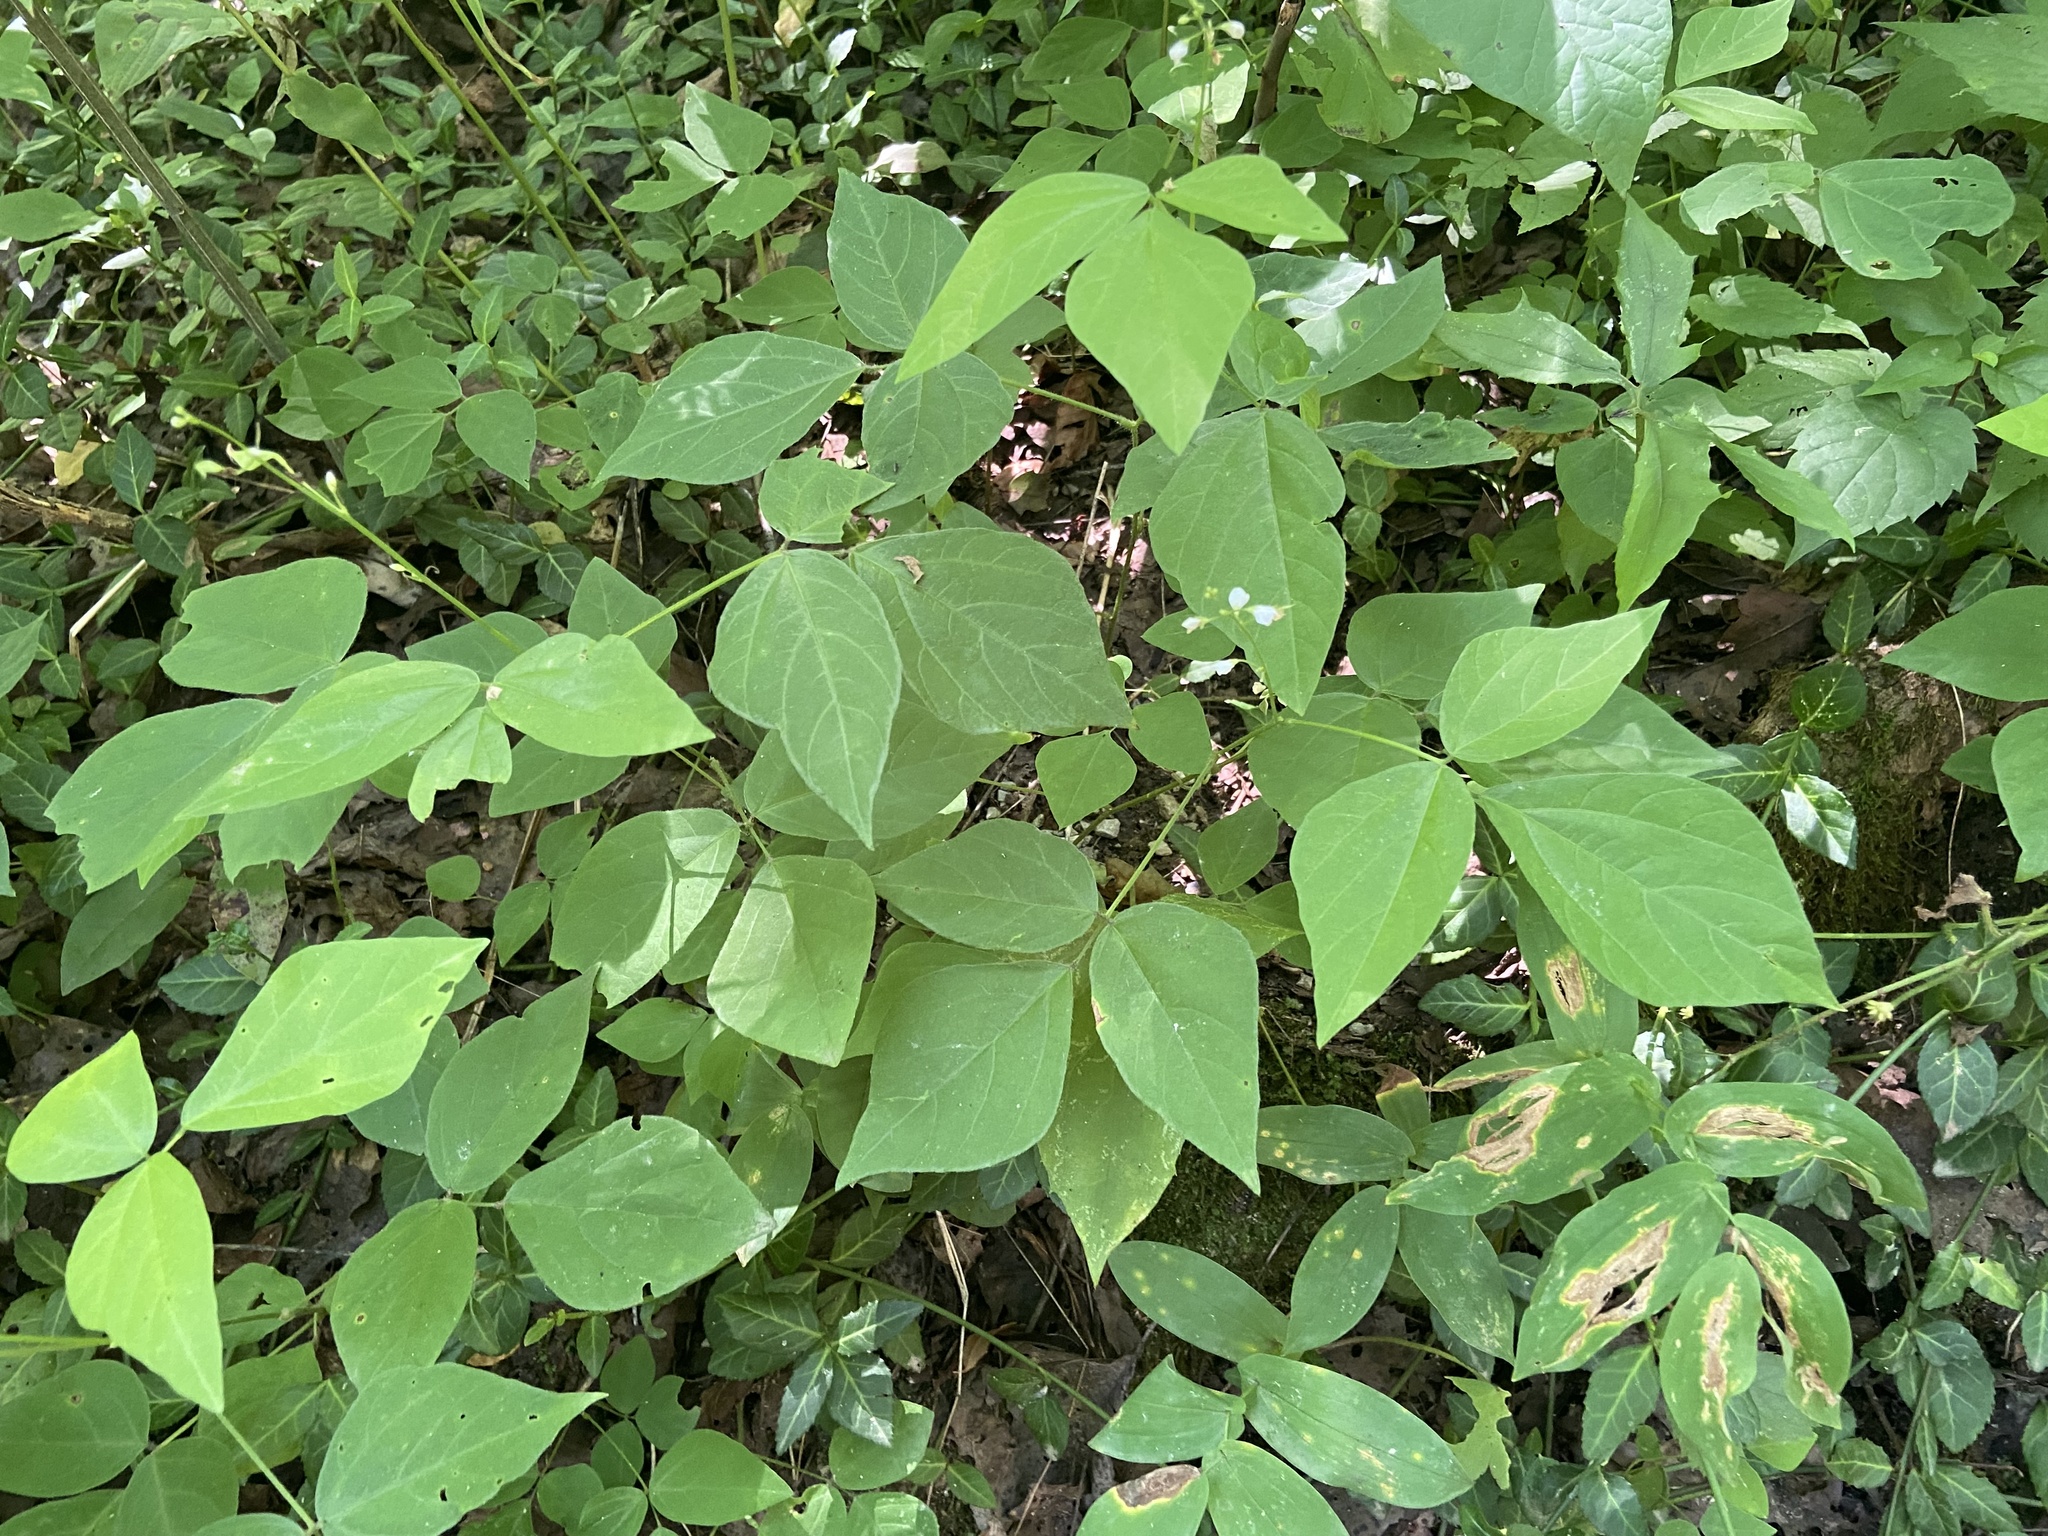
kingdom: Plantae
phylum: Tracheophyta
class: Magnoliopsida
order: Fabales
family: Fabaceae
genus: Hylodesmum
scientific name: Hylodesmum pauciflorum
